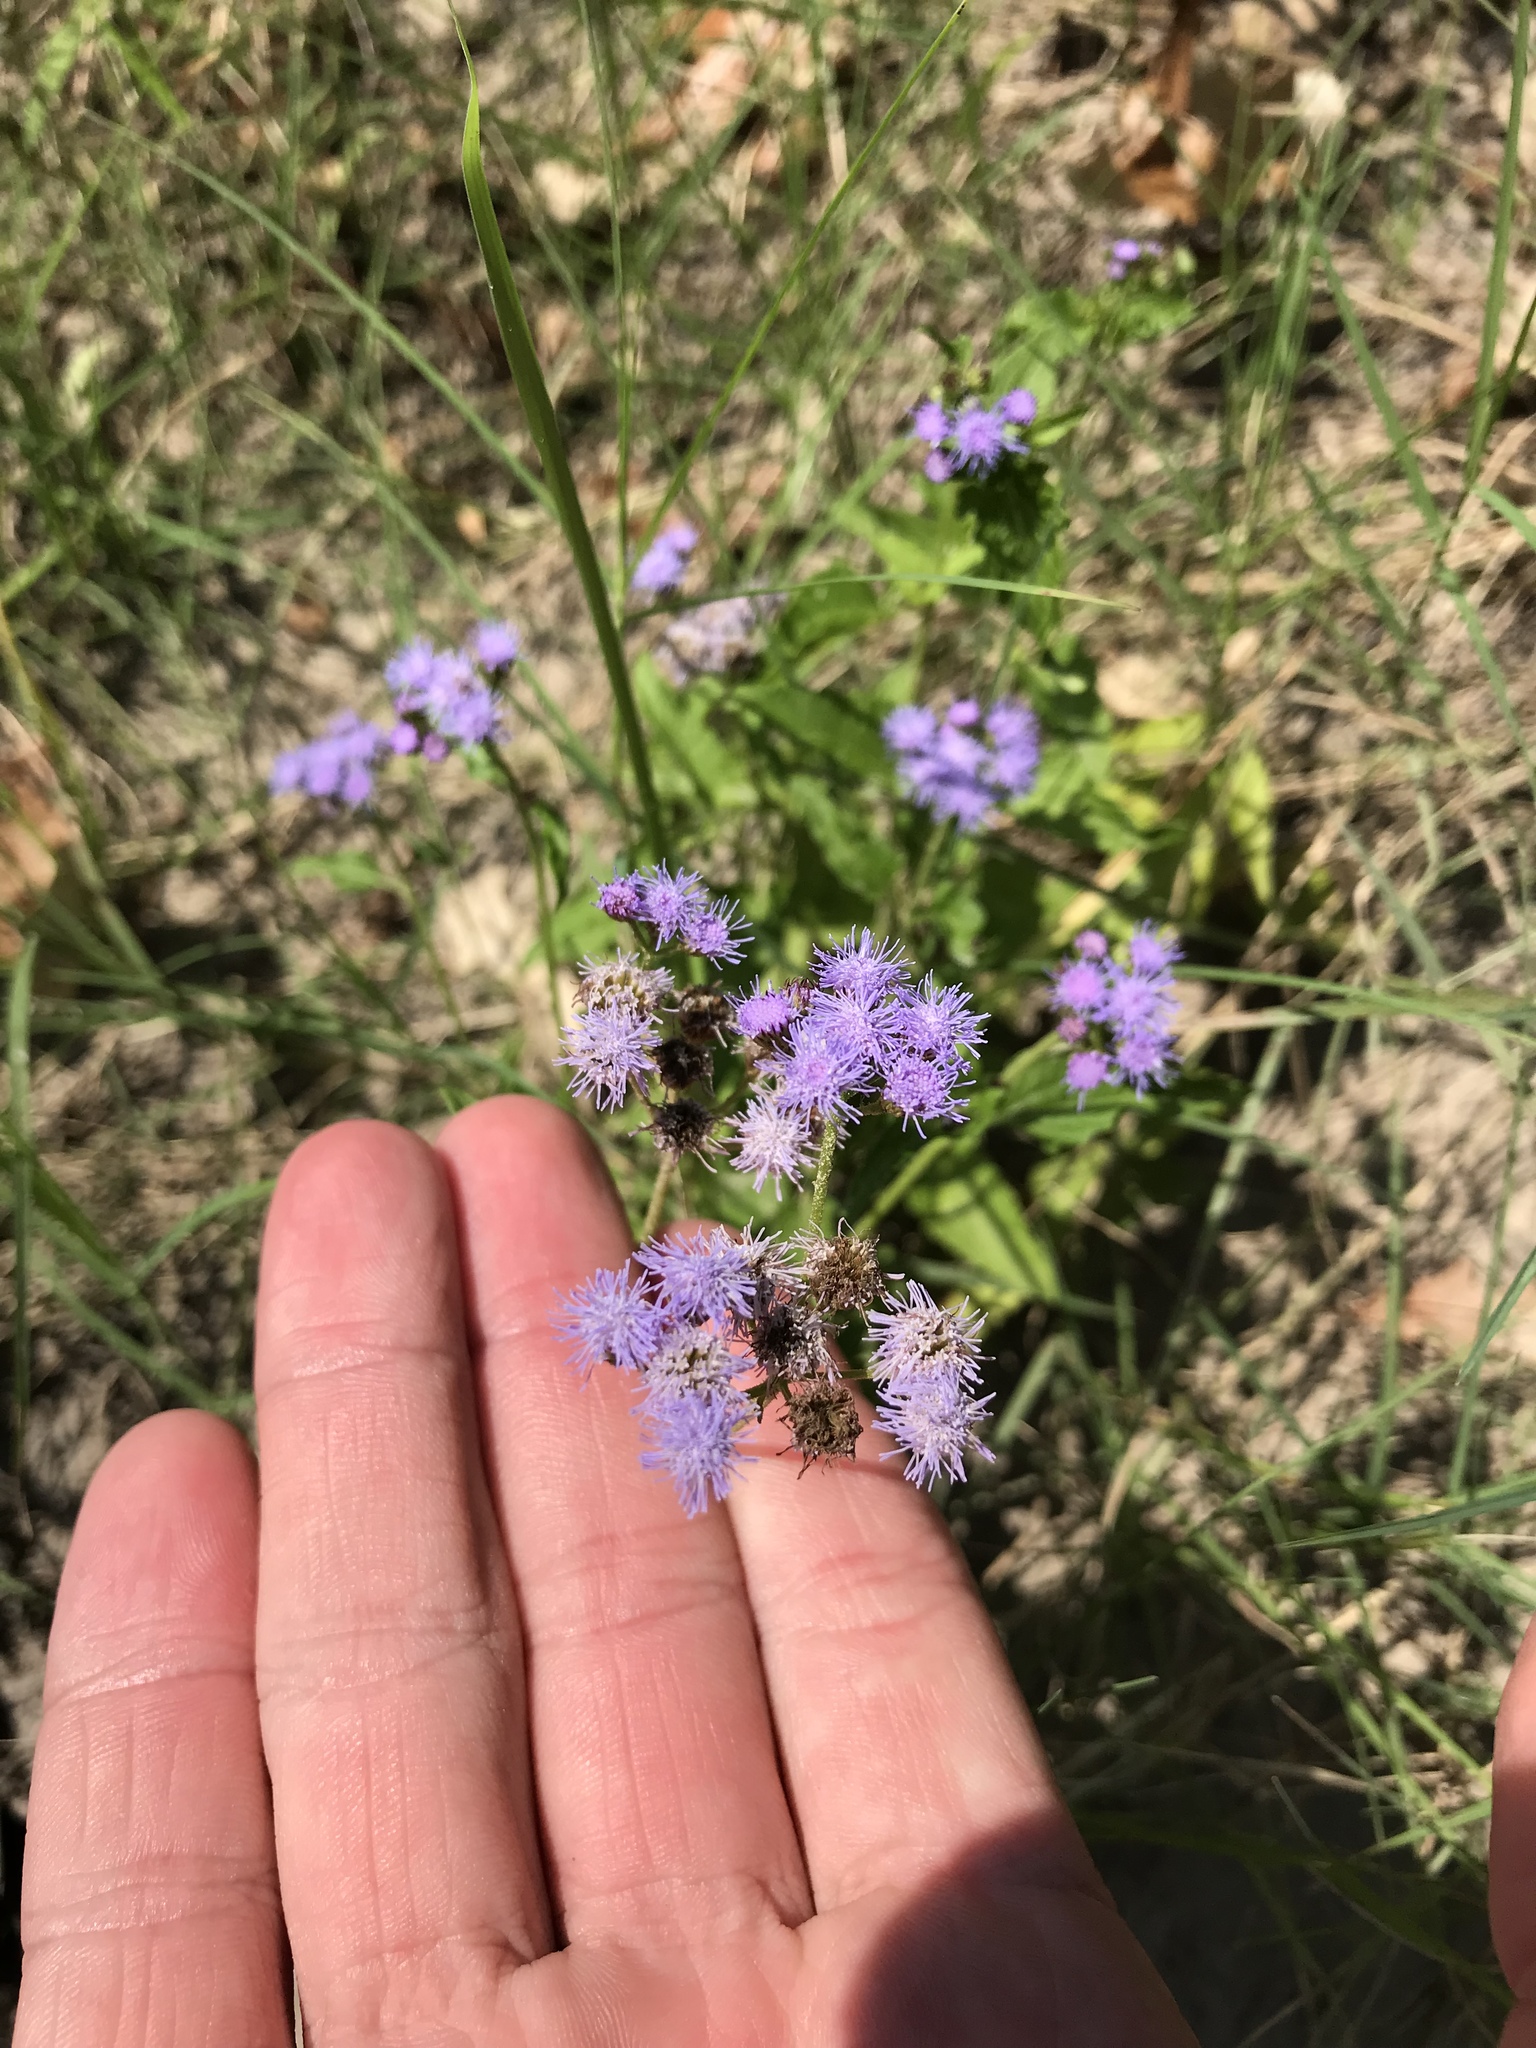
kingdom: Plantae
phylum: Tracheophyta
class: Magnoliopsida
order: Asterales
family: Asteraceae
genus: Conoclinium
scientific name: Conoclinium coelestinum
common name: Blue mistflower
